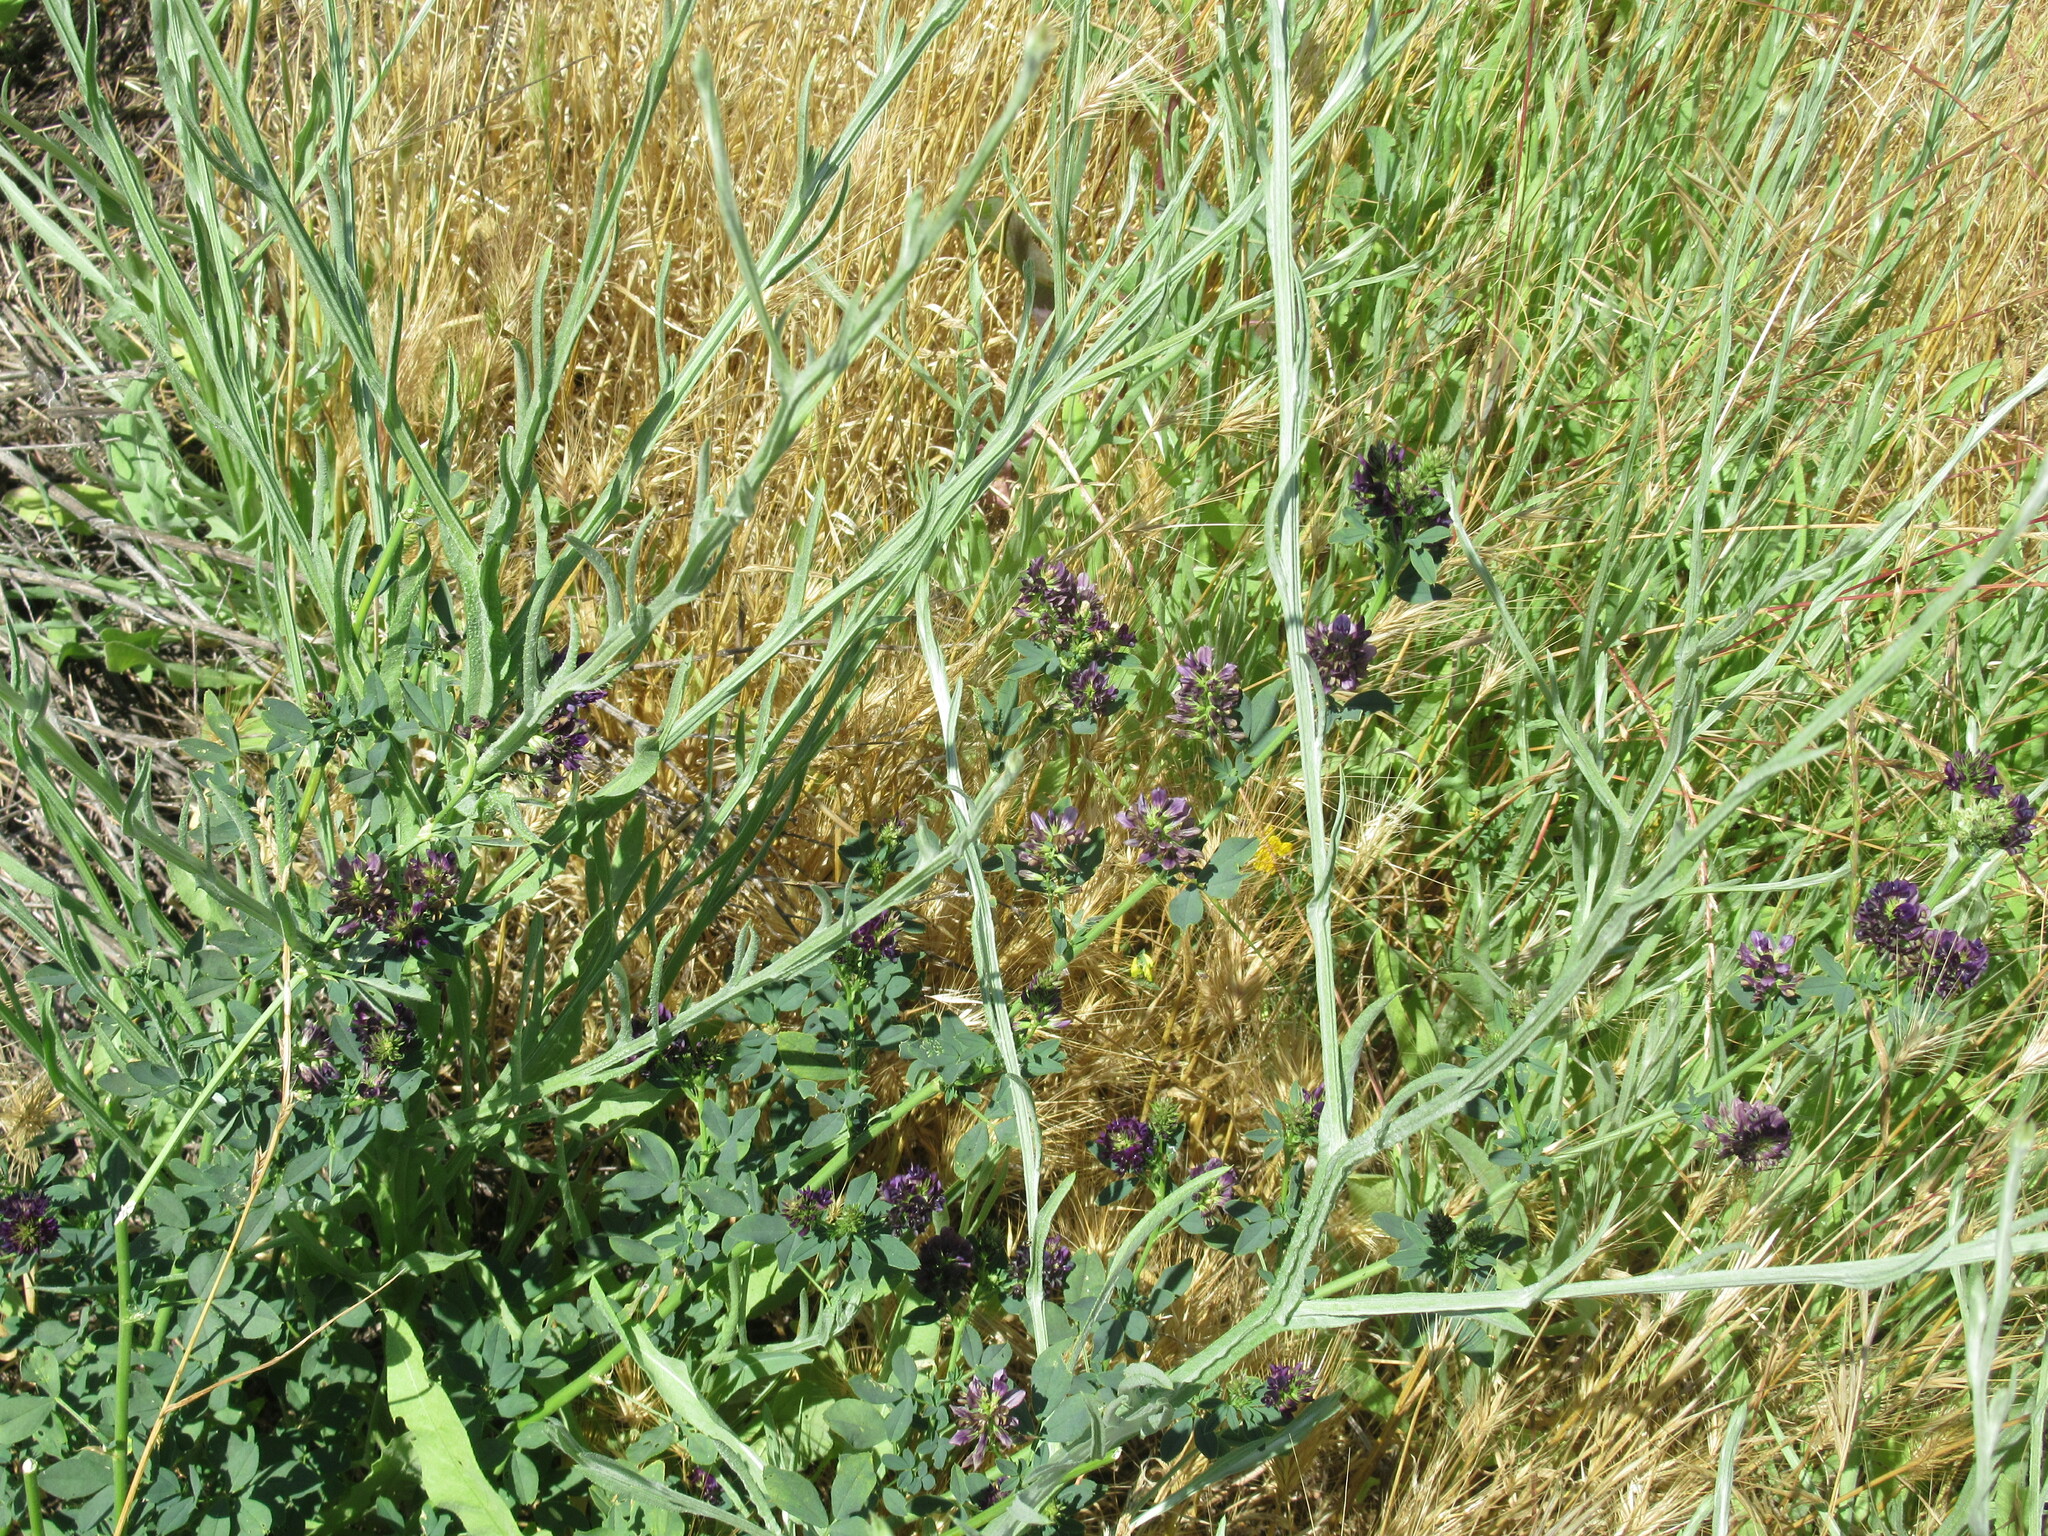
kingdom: Plantae
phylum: Tracheophyta
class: Magnoliopsida
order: Fabales
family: Fabaceae
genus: Medicago
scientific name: Medicago sativa
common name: Alfalfa
